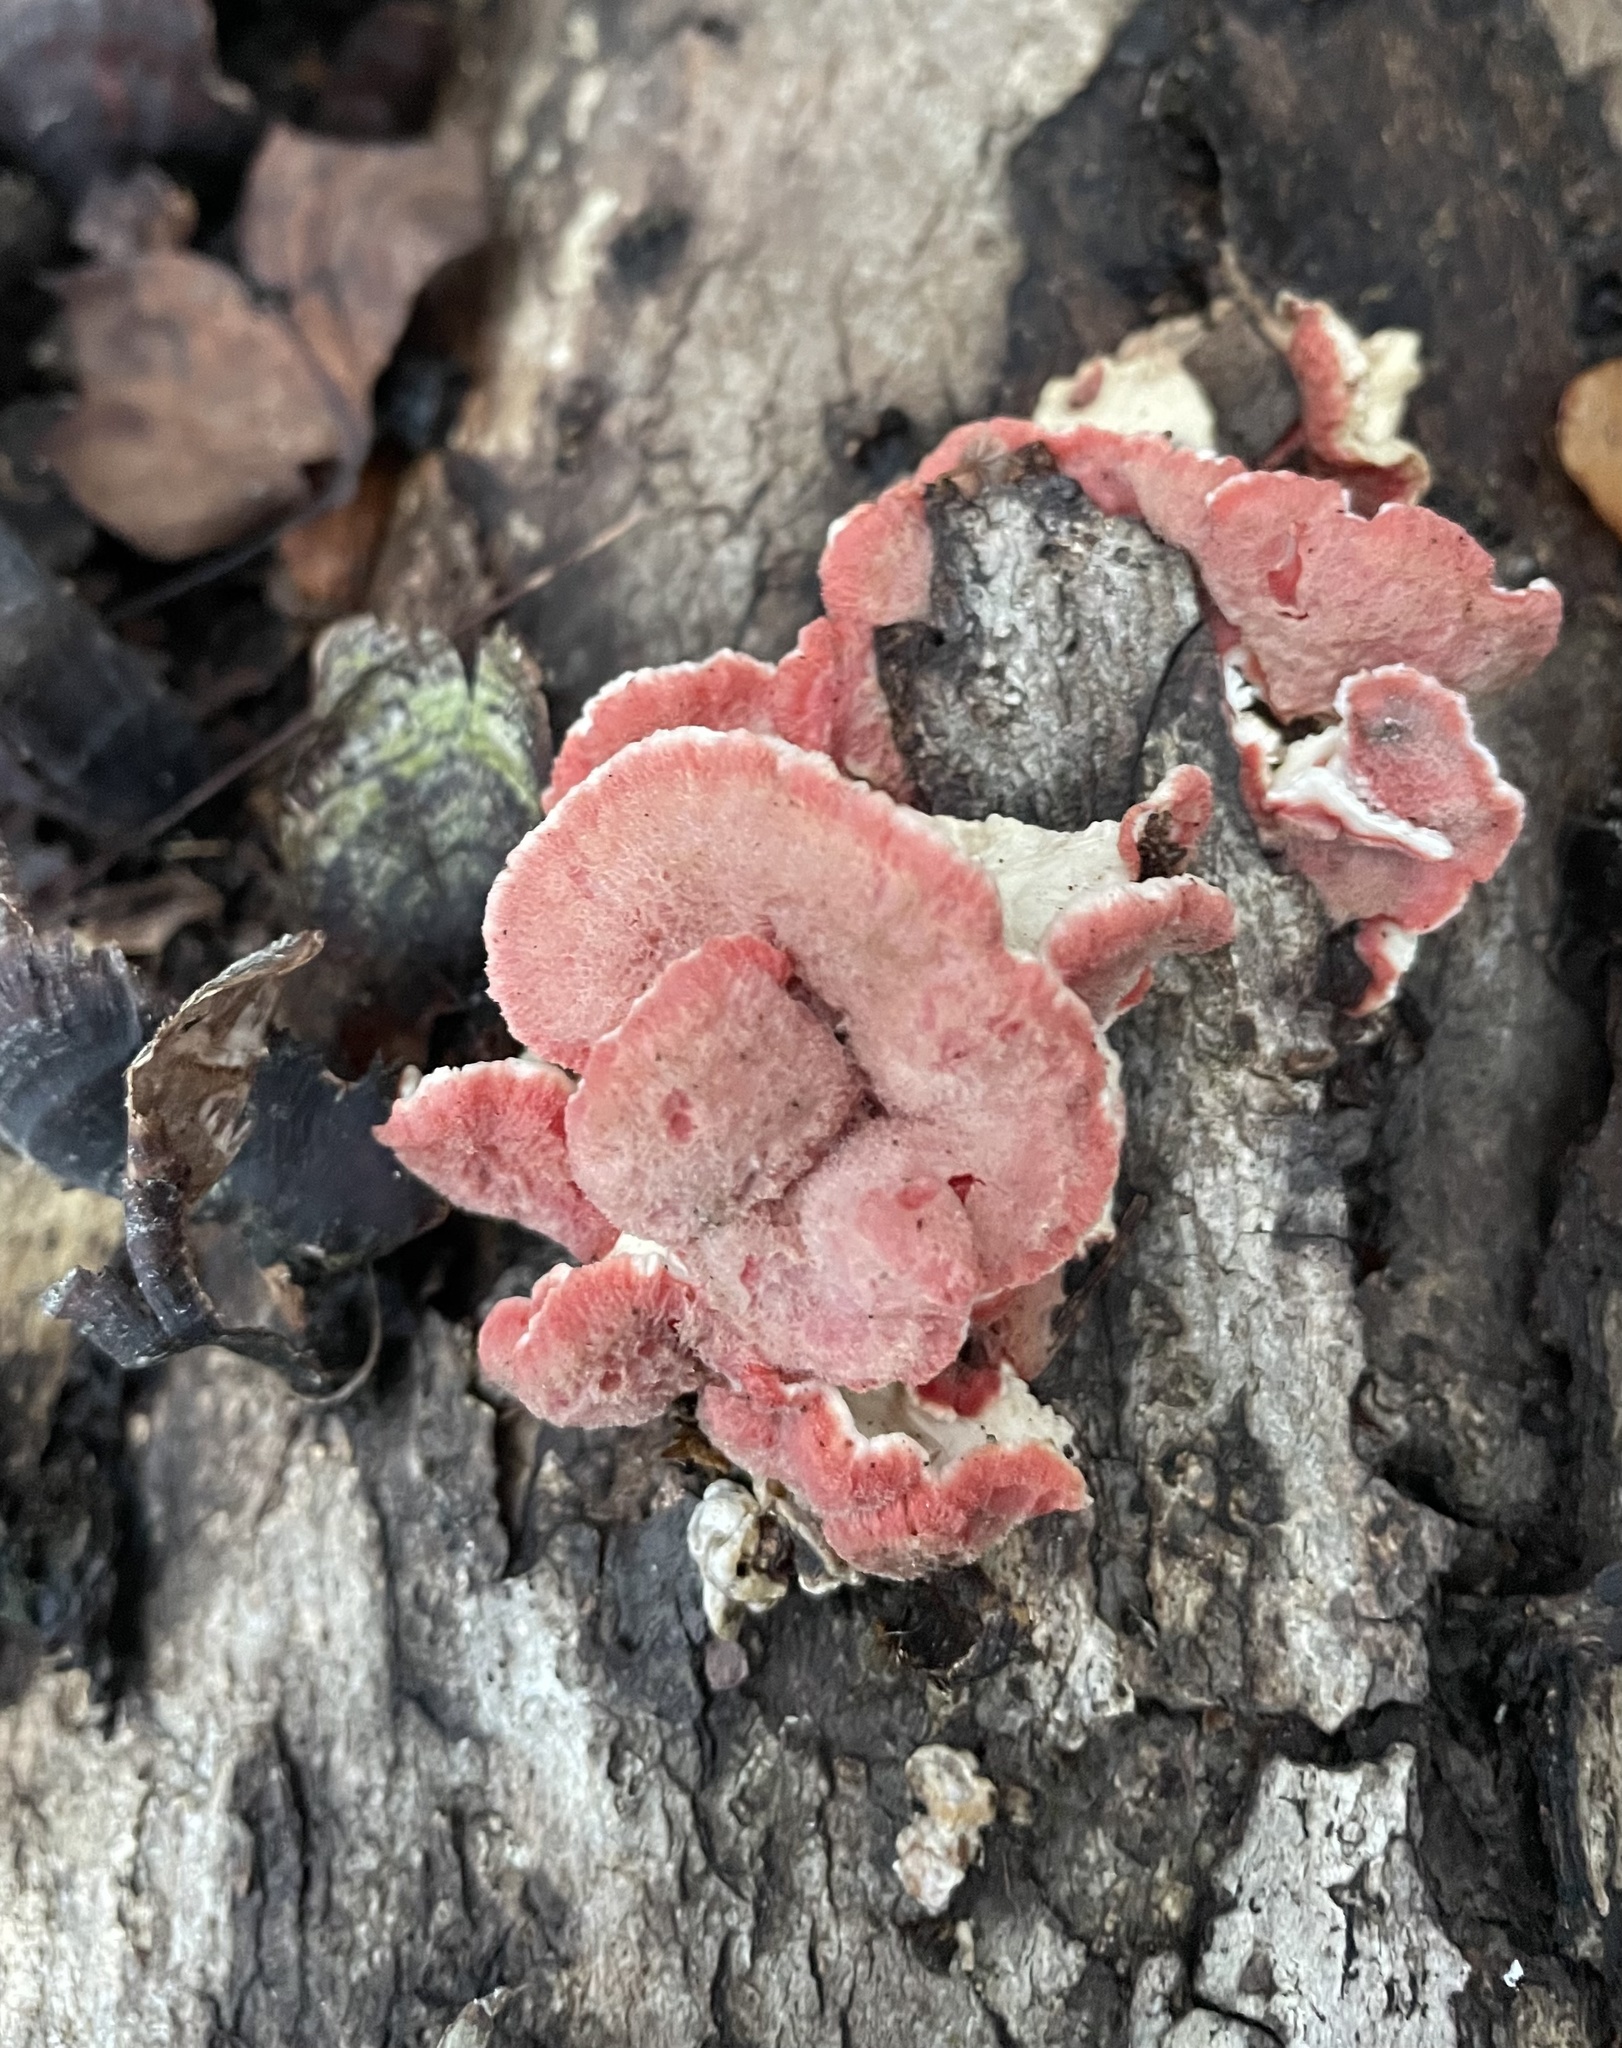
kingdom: Fungi
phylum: Basidiomycota
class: Agaricomycetes
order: Polyporales
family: Irpicaceae
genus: Byssomerulius
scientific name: Byssomerulius incarnatus
